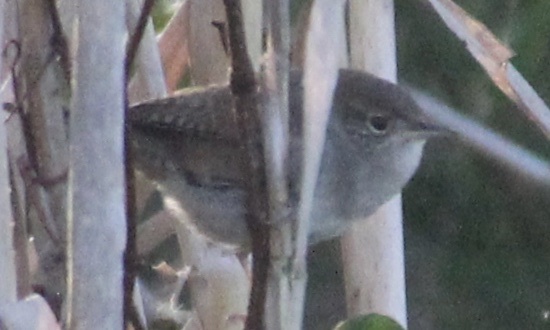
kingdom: Animalia
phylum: Chordata
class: Aves
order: Passeriformes
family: Troglodytidae
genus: Troglodytes
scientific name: Troglodytes aedon
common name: House wren
